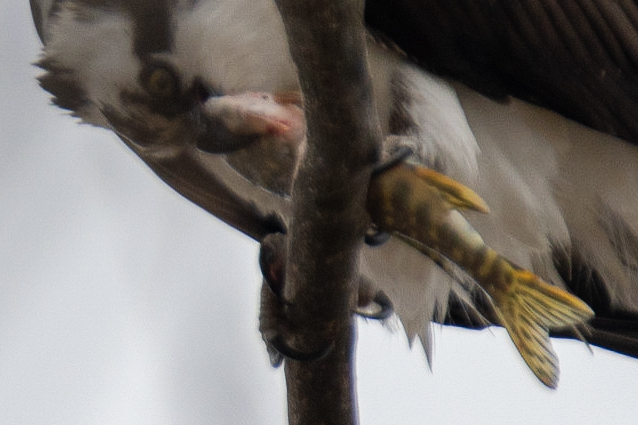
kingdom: Animalia
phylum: Chordata
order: Esociformes
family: Esocidae
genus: Esox
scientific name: Esox lucius
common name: Northern pike
